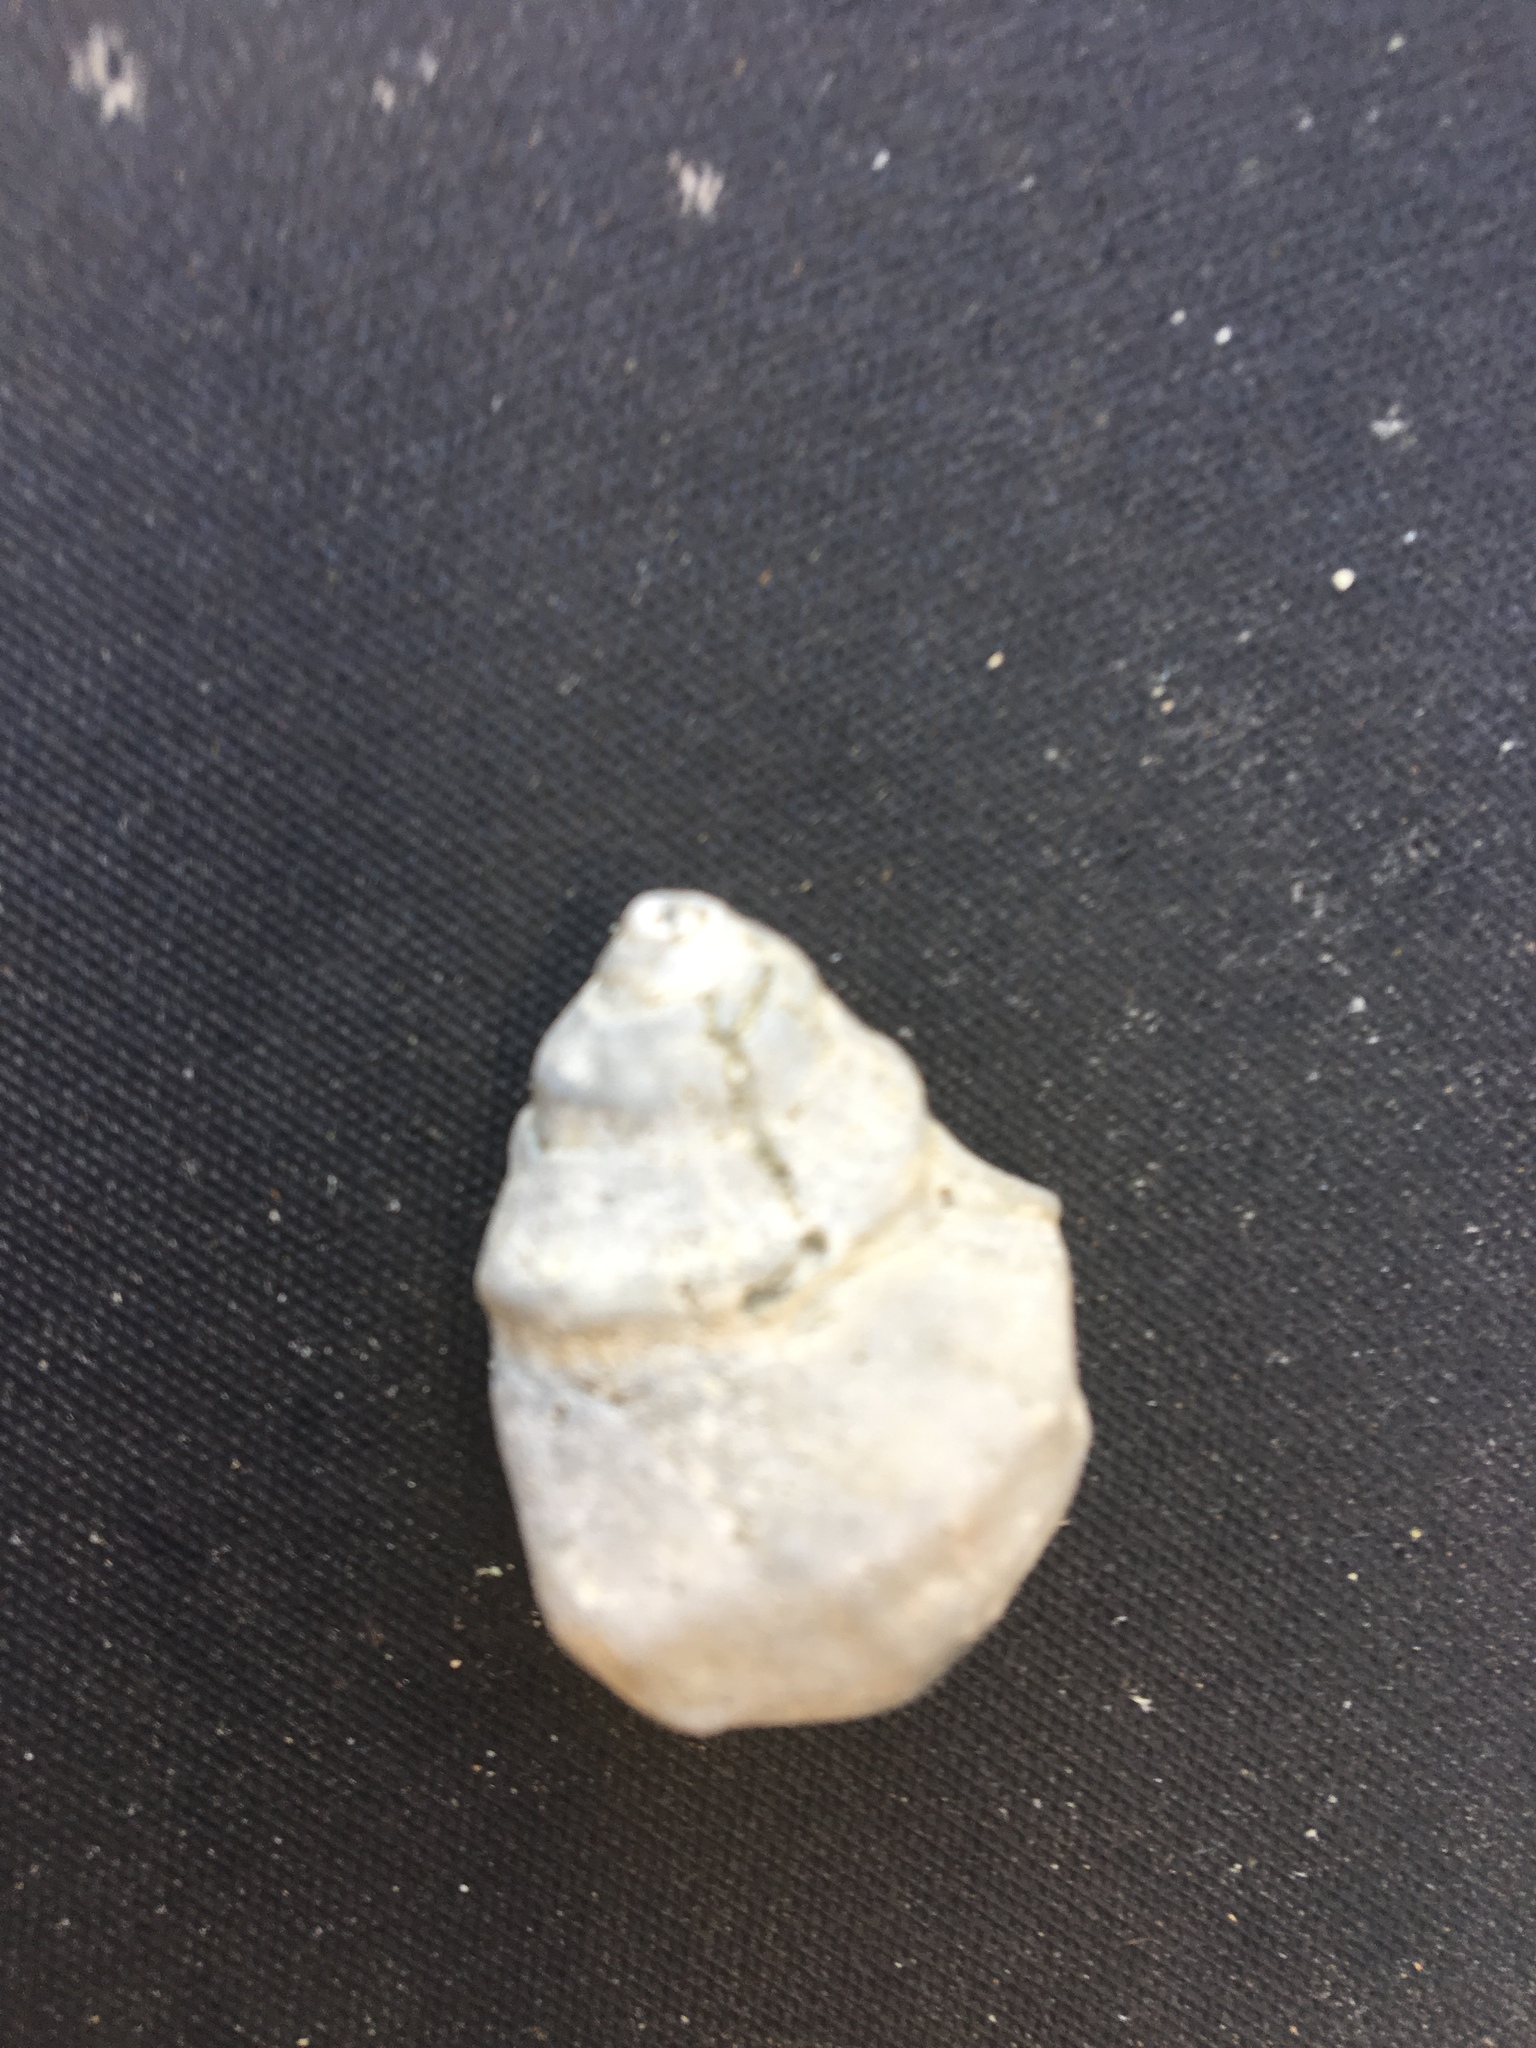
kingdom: Animalia
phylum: Mollusca
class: Gastropoda
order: Neogastropoda
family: Muricidae
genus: Nucella
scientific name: Nucella lamellosa
